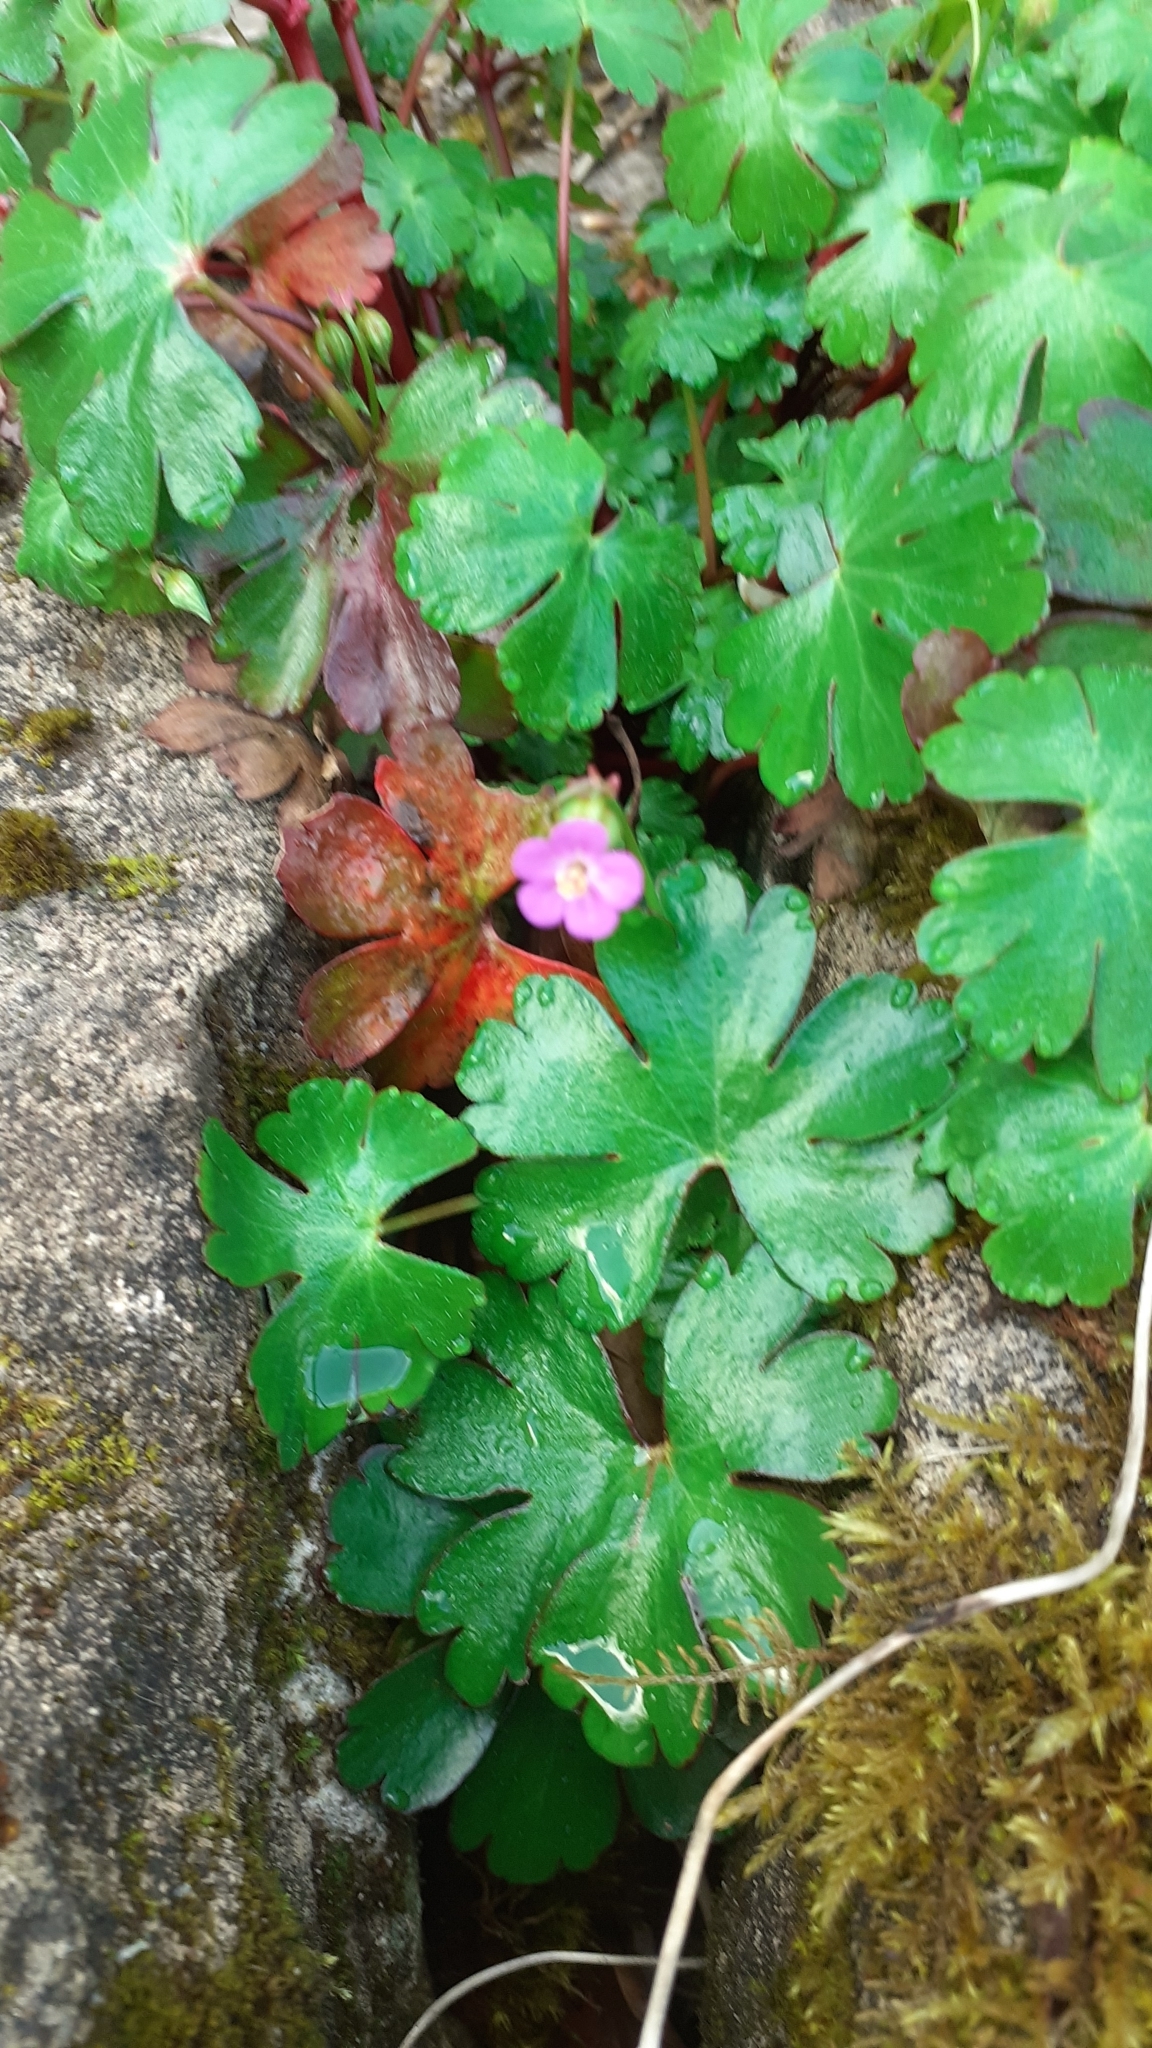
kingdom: Plantae
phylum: Tracheophyta
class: Magnoliopsida
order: Geraniales
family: Geraniaceae
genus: Geranium
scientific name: Geranium lucidum
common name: Shining crane's-bill
